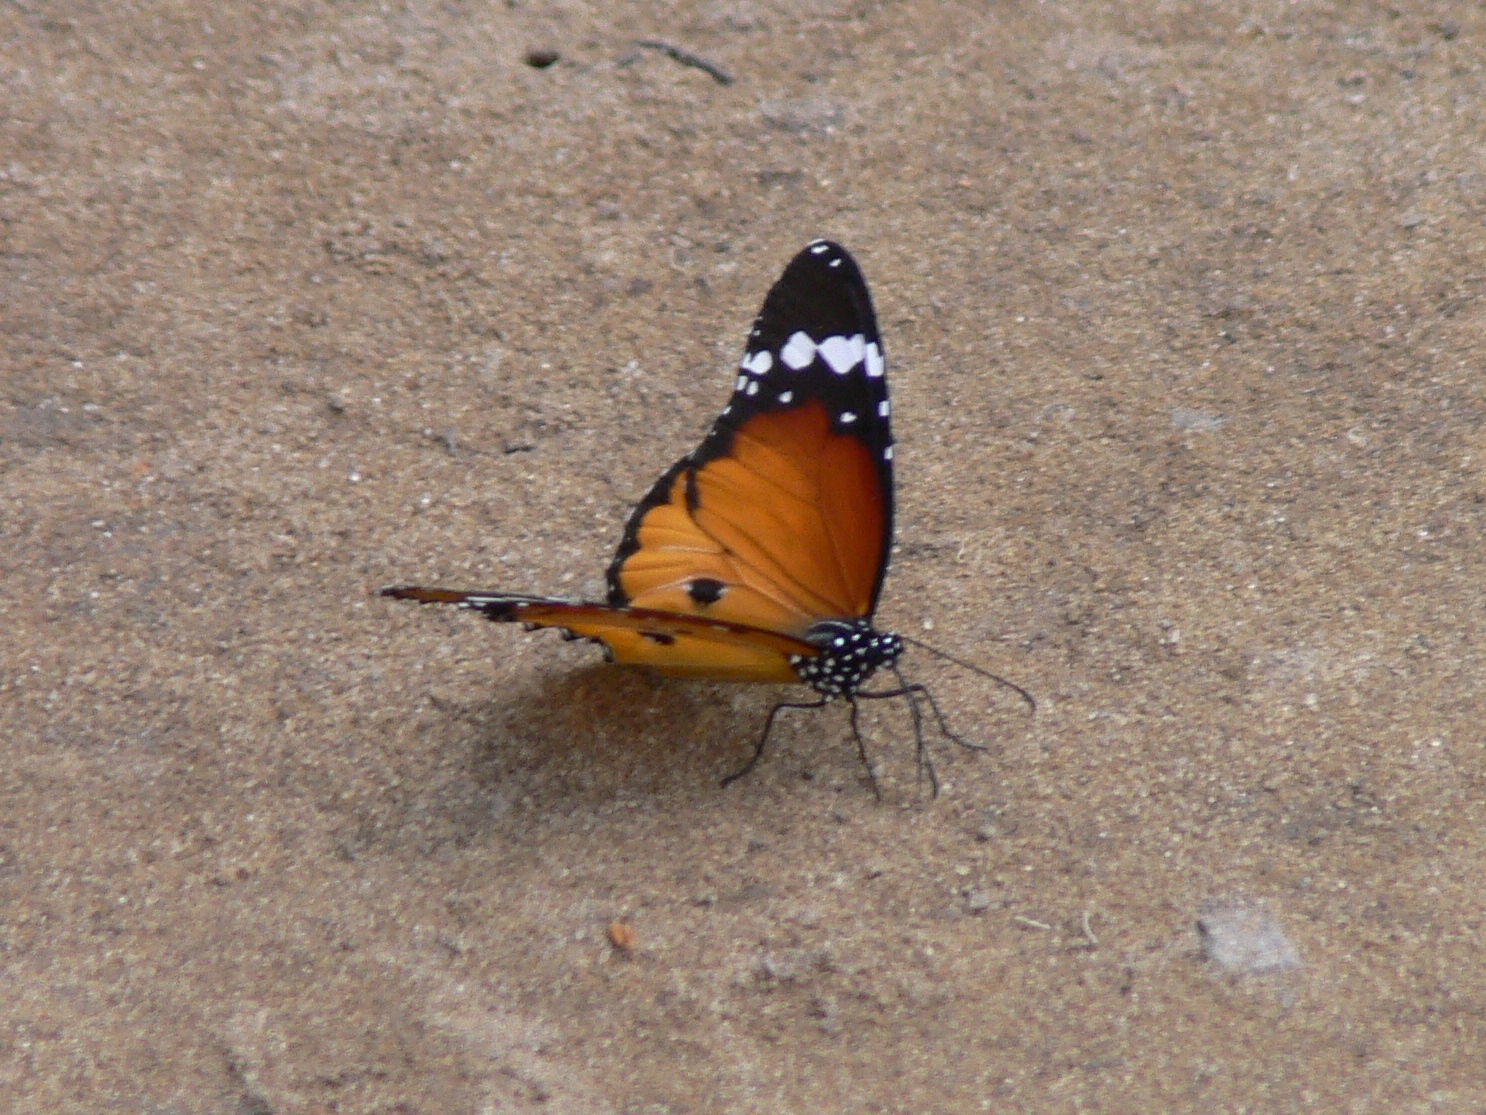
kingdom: Animalia
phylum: Arthropoda
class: Insecta
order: Lepidoptera
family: Nymphalidae
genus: Danaus
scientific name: Danaus chrysippus
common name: Plain tiger
